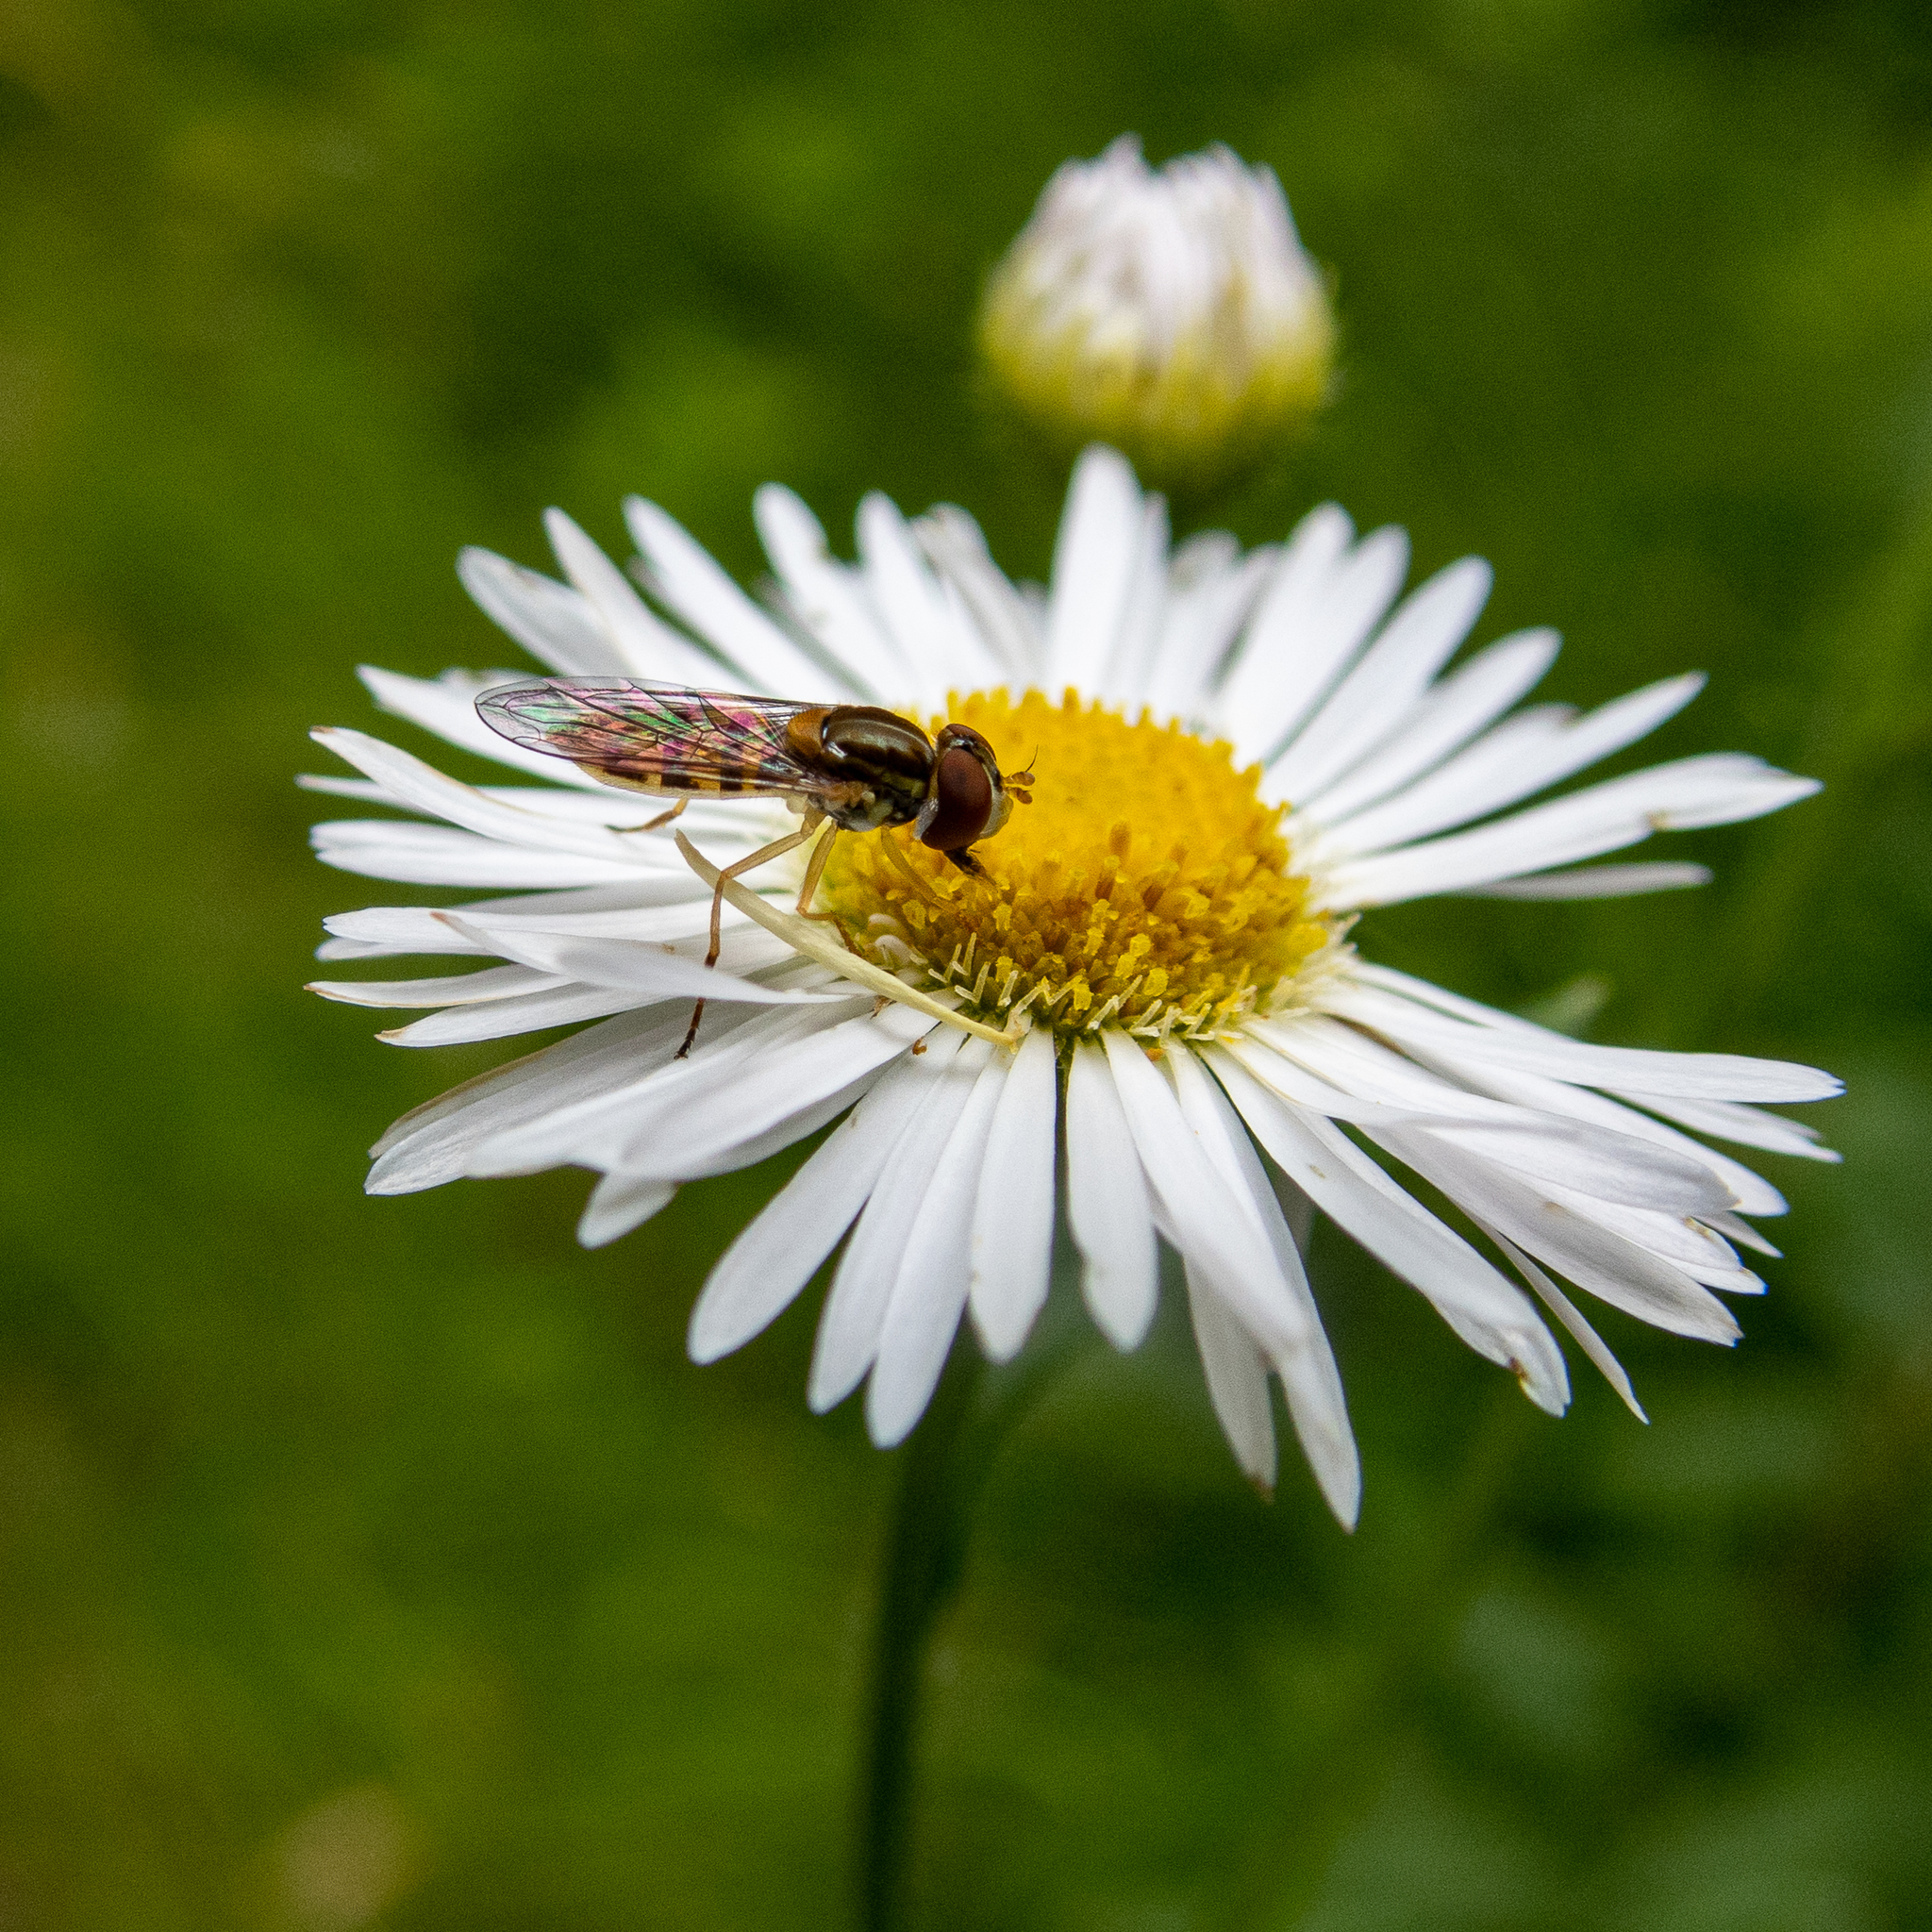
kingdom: Animalia
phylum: Arthropoda
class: Insecta
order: Diptera
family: Syrphidae
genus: Toxomerus
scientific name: Toxomerus marginatus
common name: Syrphid fly
